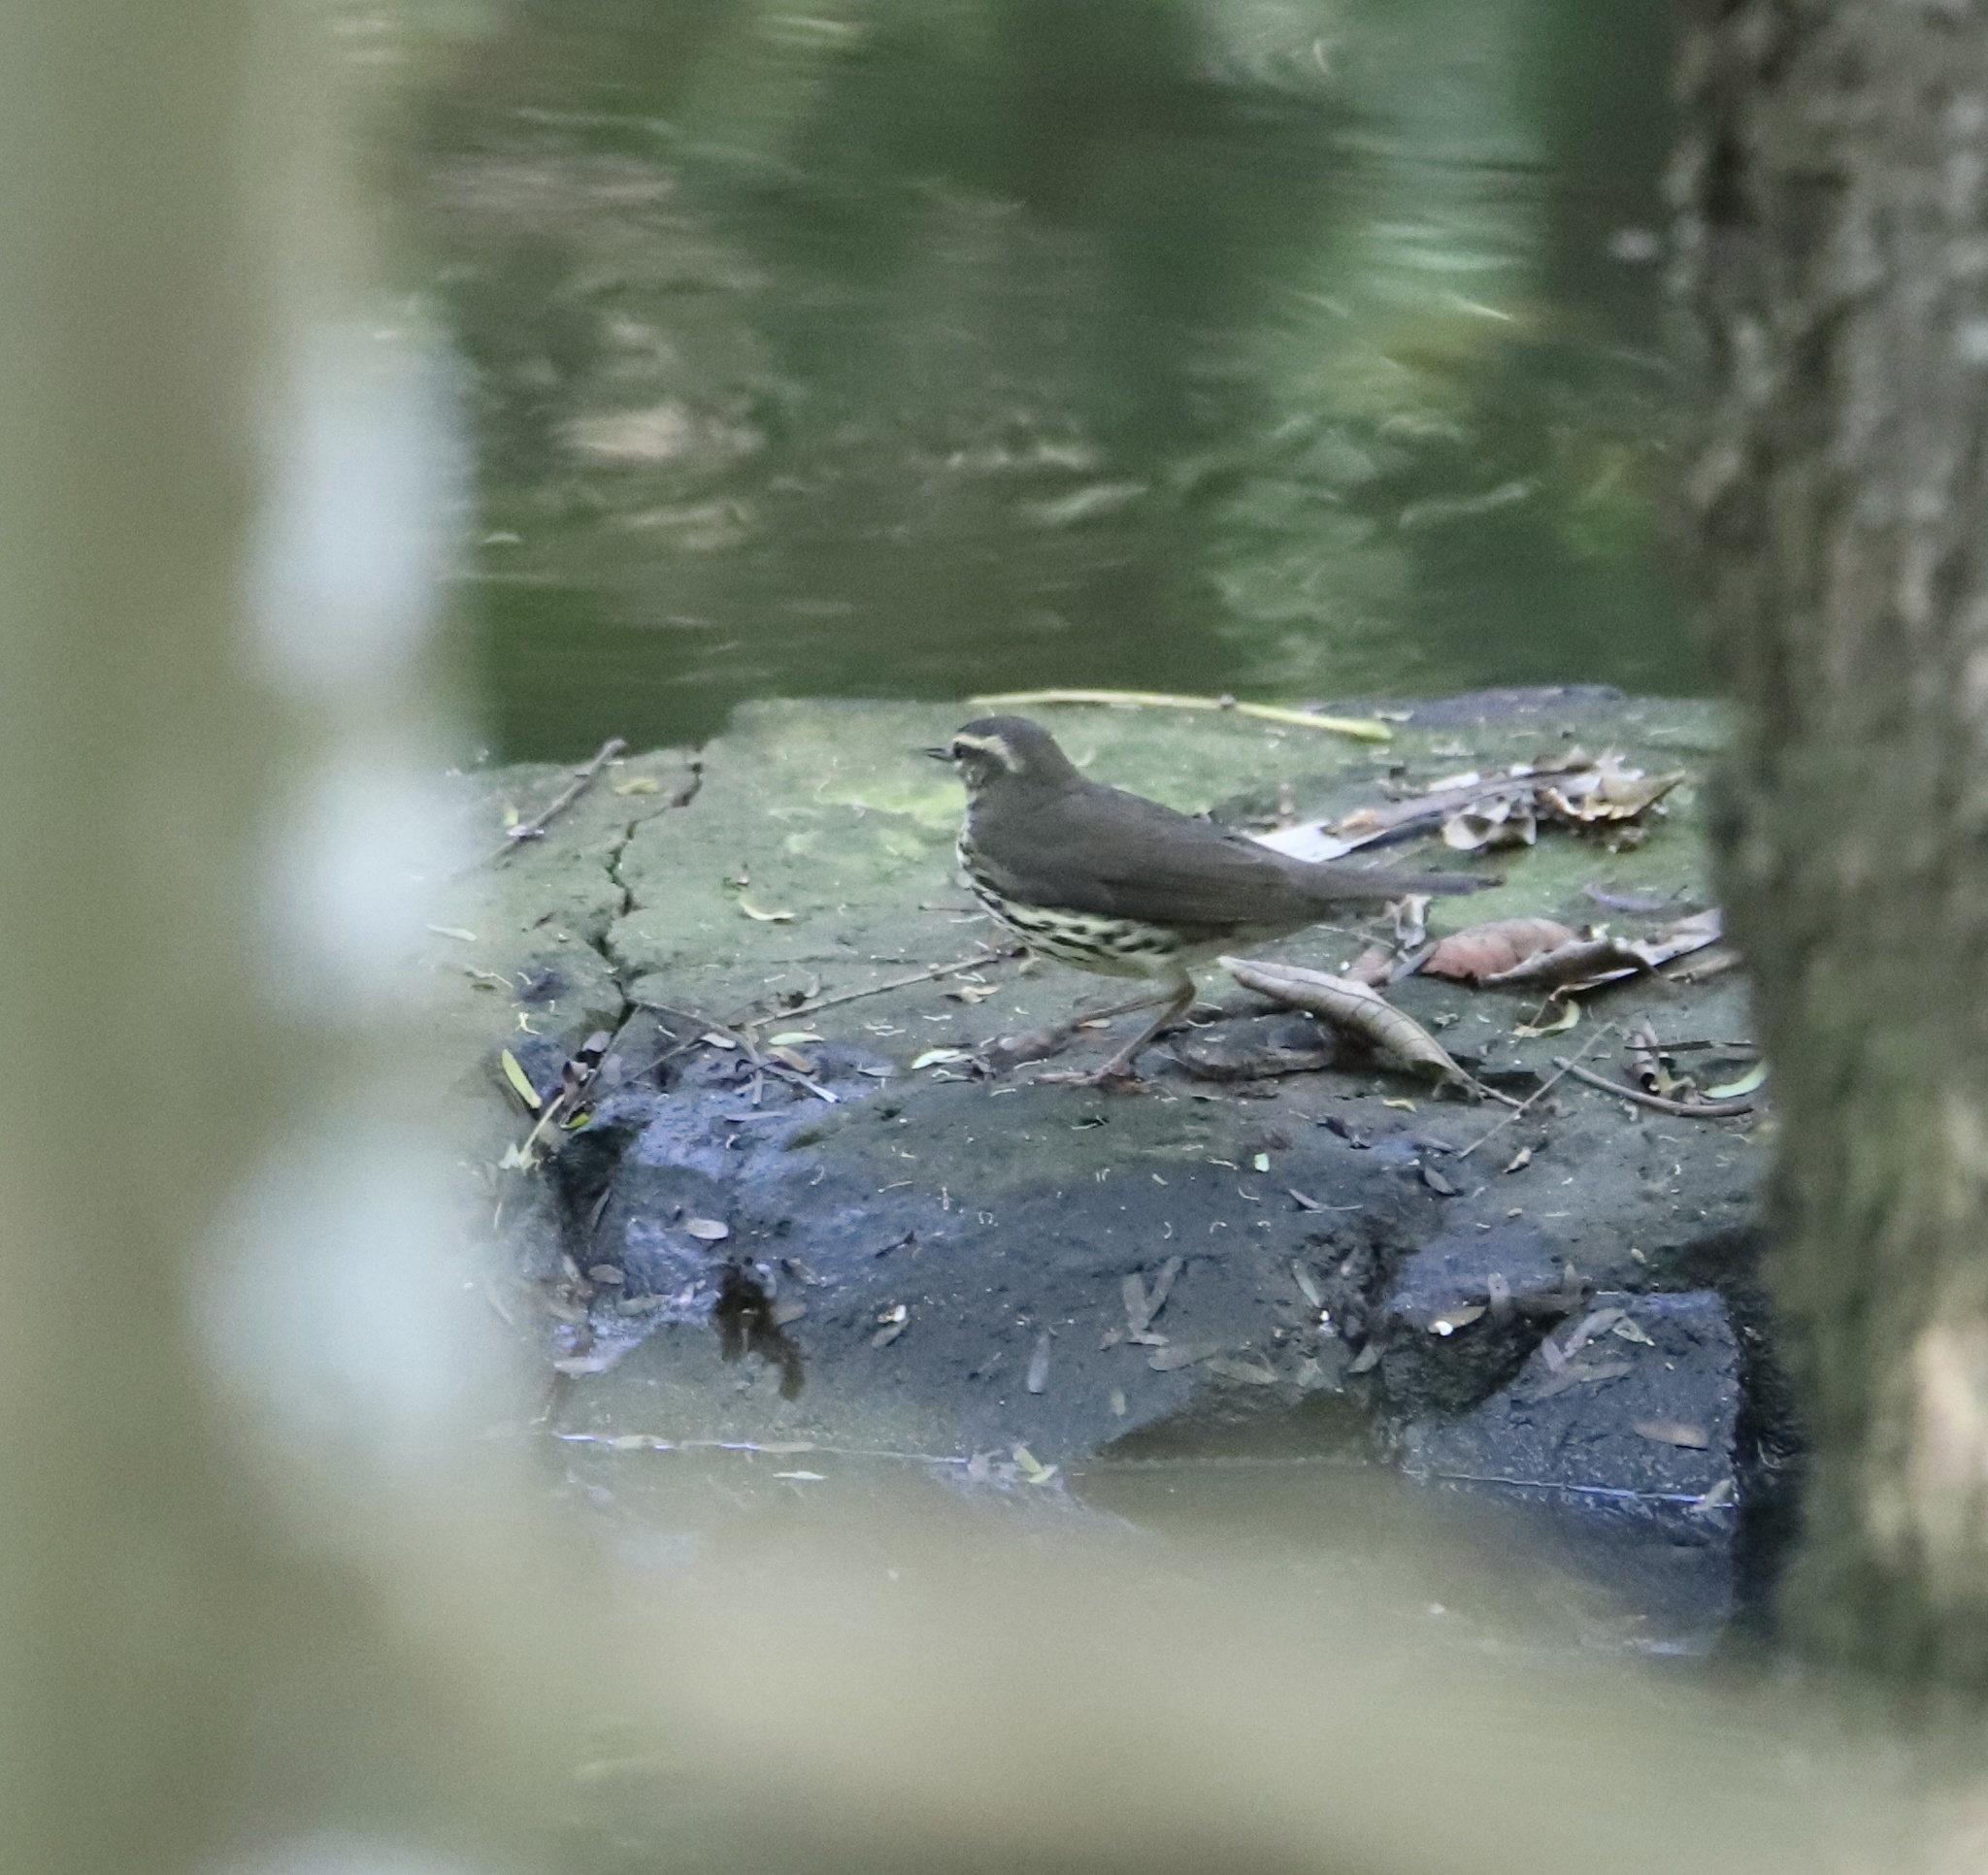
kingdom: Animalia
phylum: Chordata
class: Aves
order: Passeriformes
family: Parulidae
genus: Parkesia
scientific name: Parkesia noveboracensis
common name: Northern waterthrush
